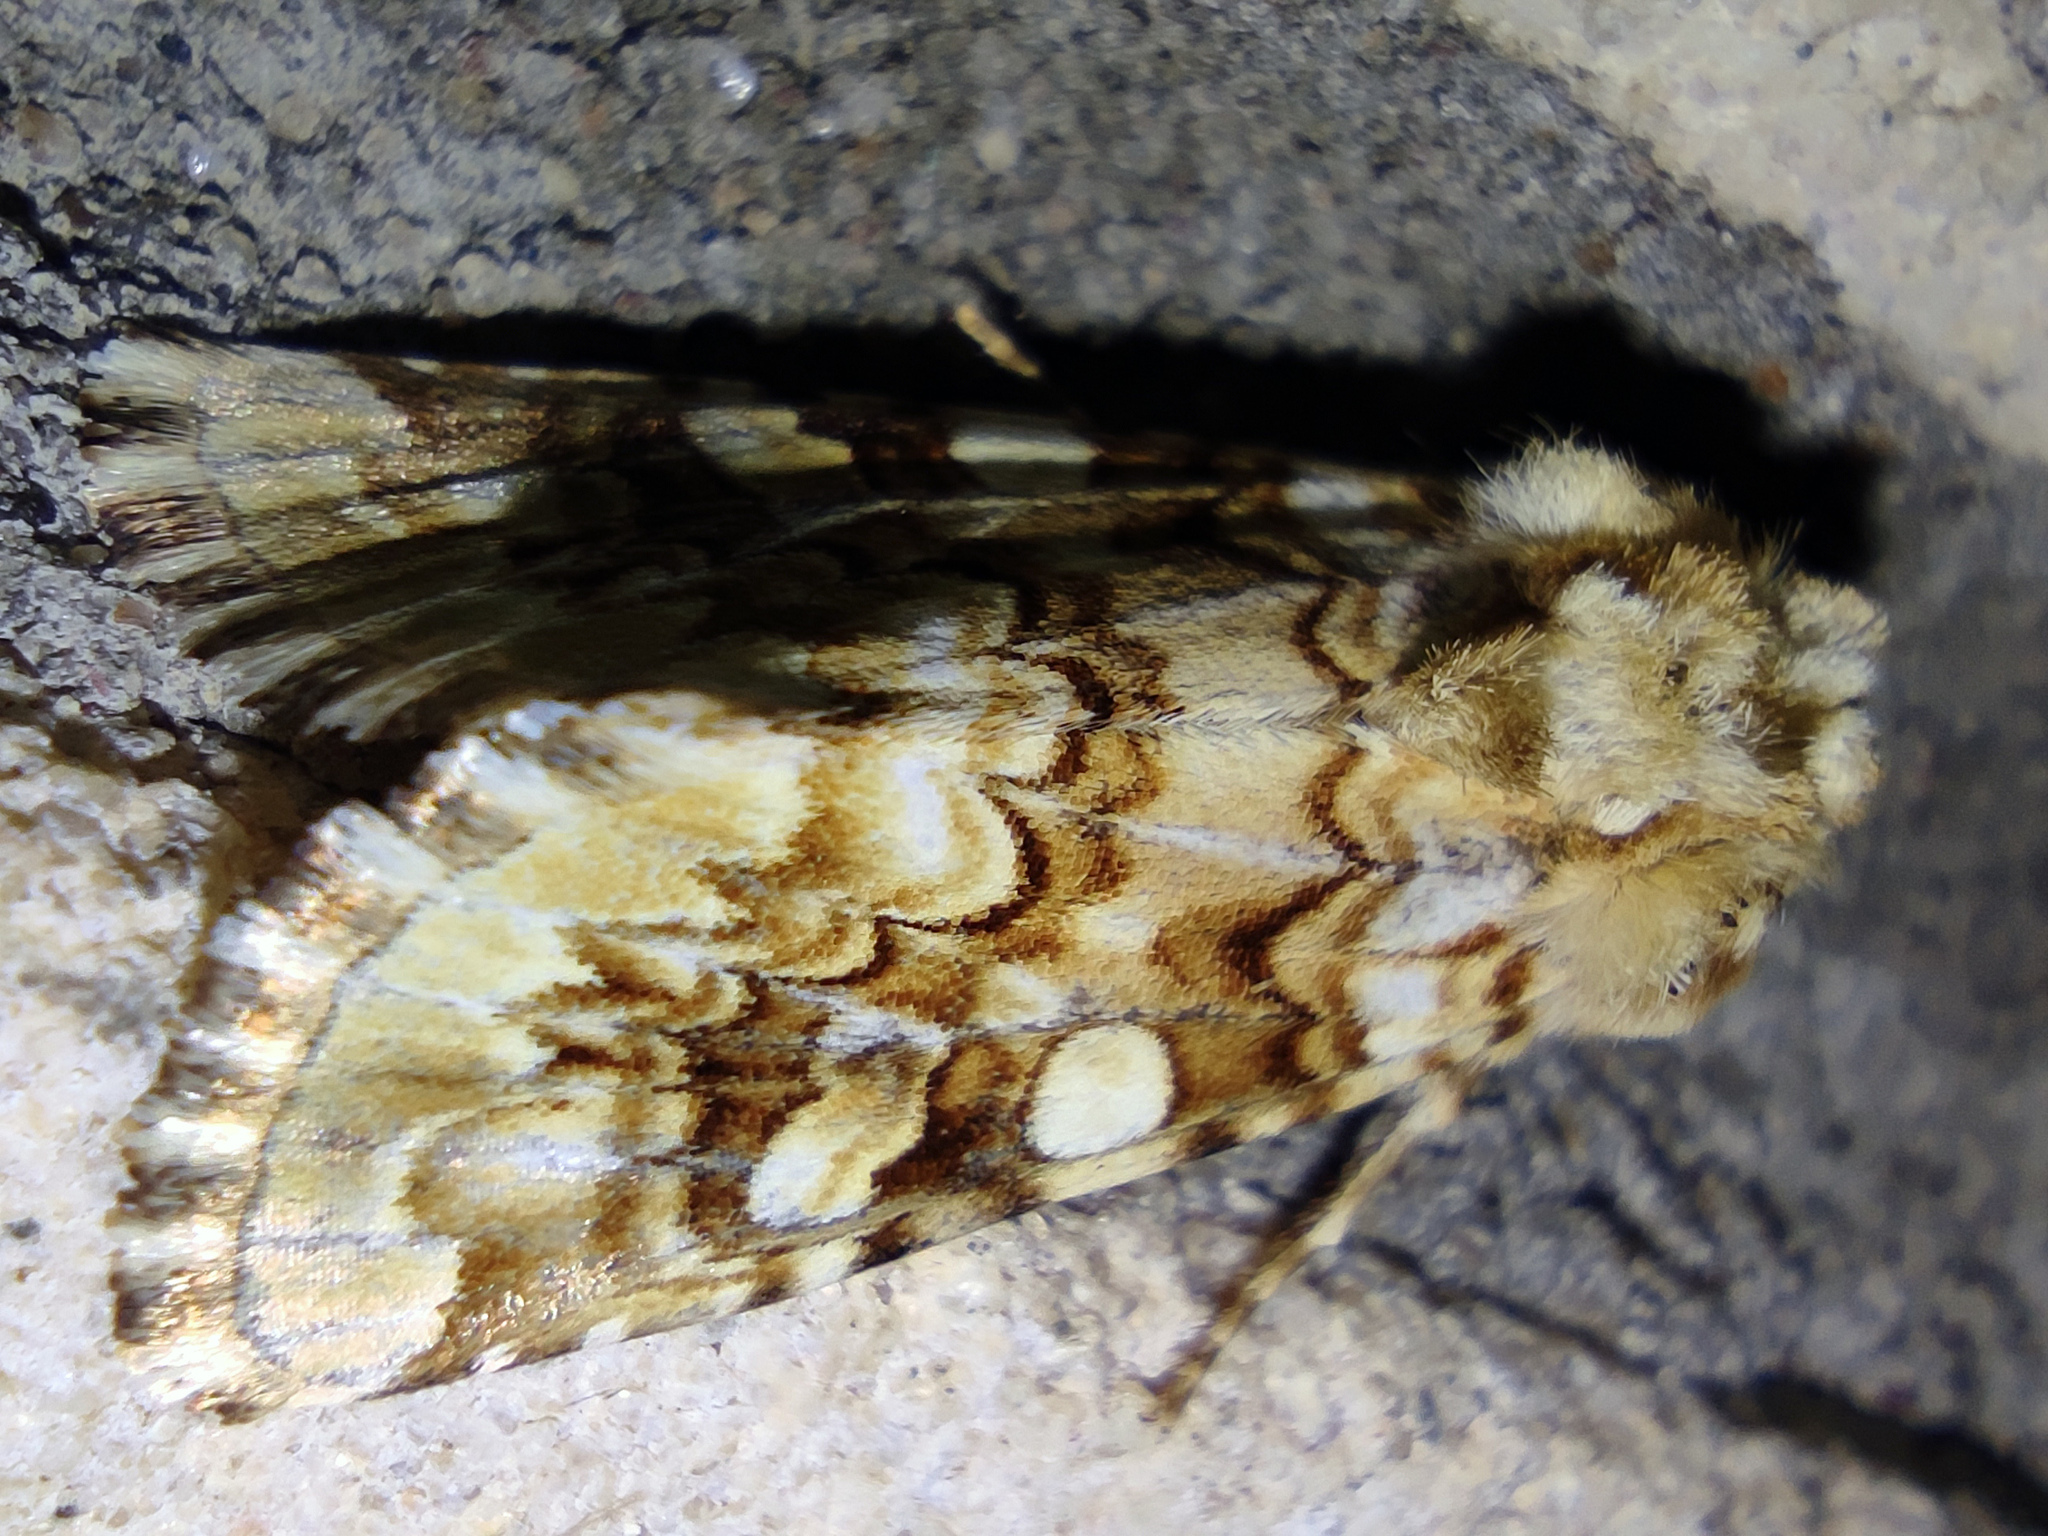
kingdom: Animalia
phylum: Arthropoda
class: Insecta
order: Lepidoptera
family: Noctuidae
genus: Hadena
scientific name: Hadena irregularis
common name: Vipers bugloss
